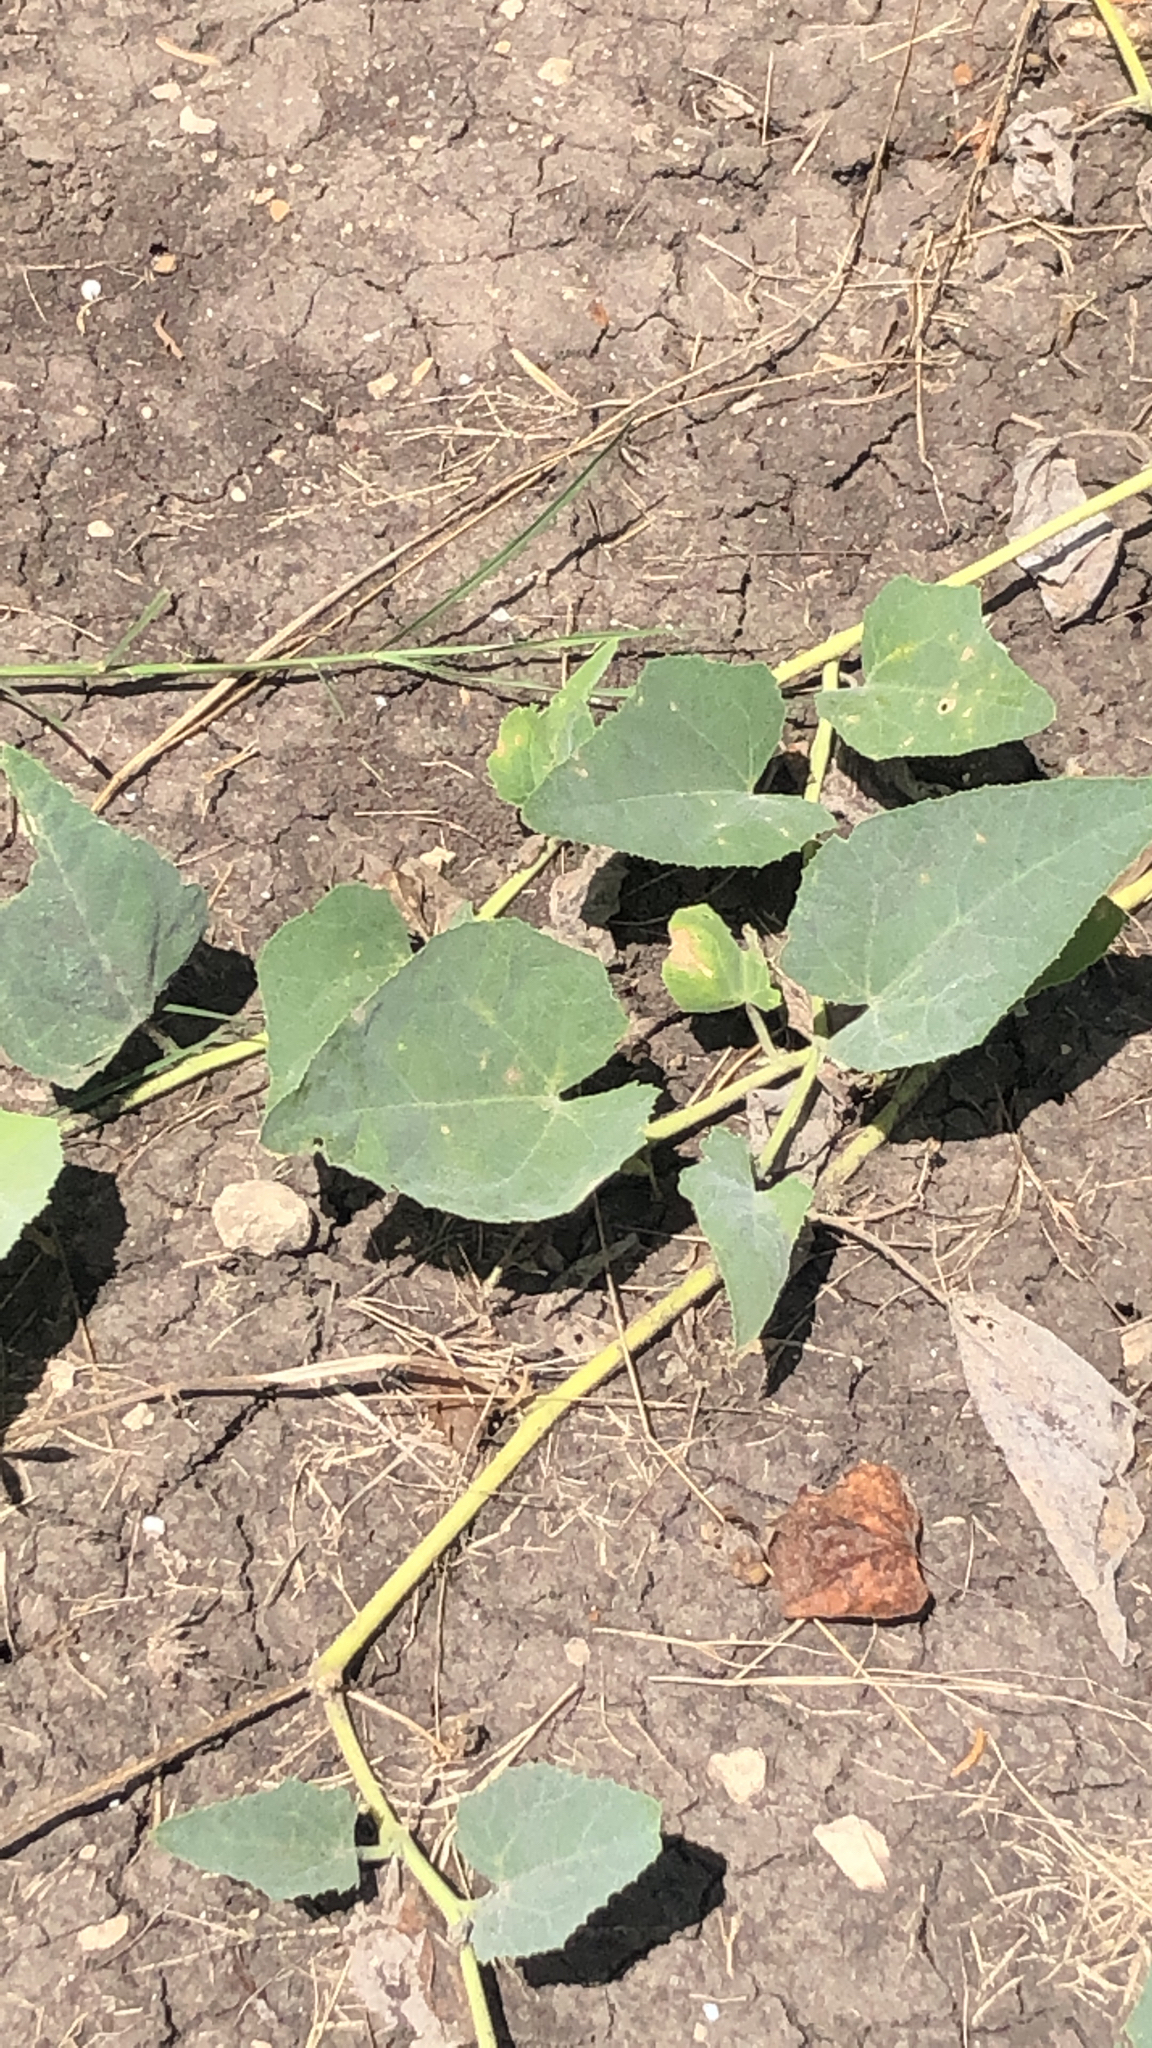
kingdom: Plantae
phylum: Tracheophyta
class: Magnoliopsida
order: Cucurbitales
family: Cucurbitaceae
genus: Cucurbita
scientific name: Cucurbita foetidissima
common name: Buffalo gourd
